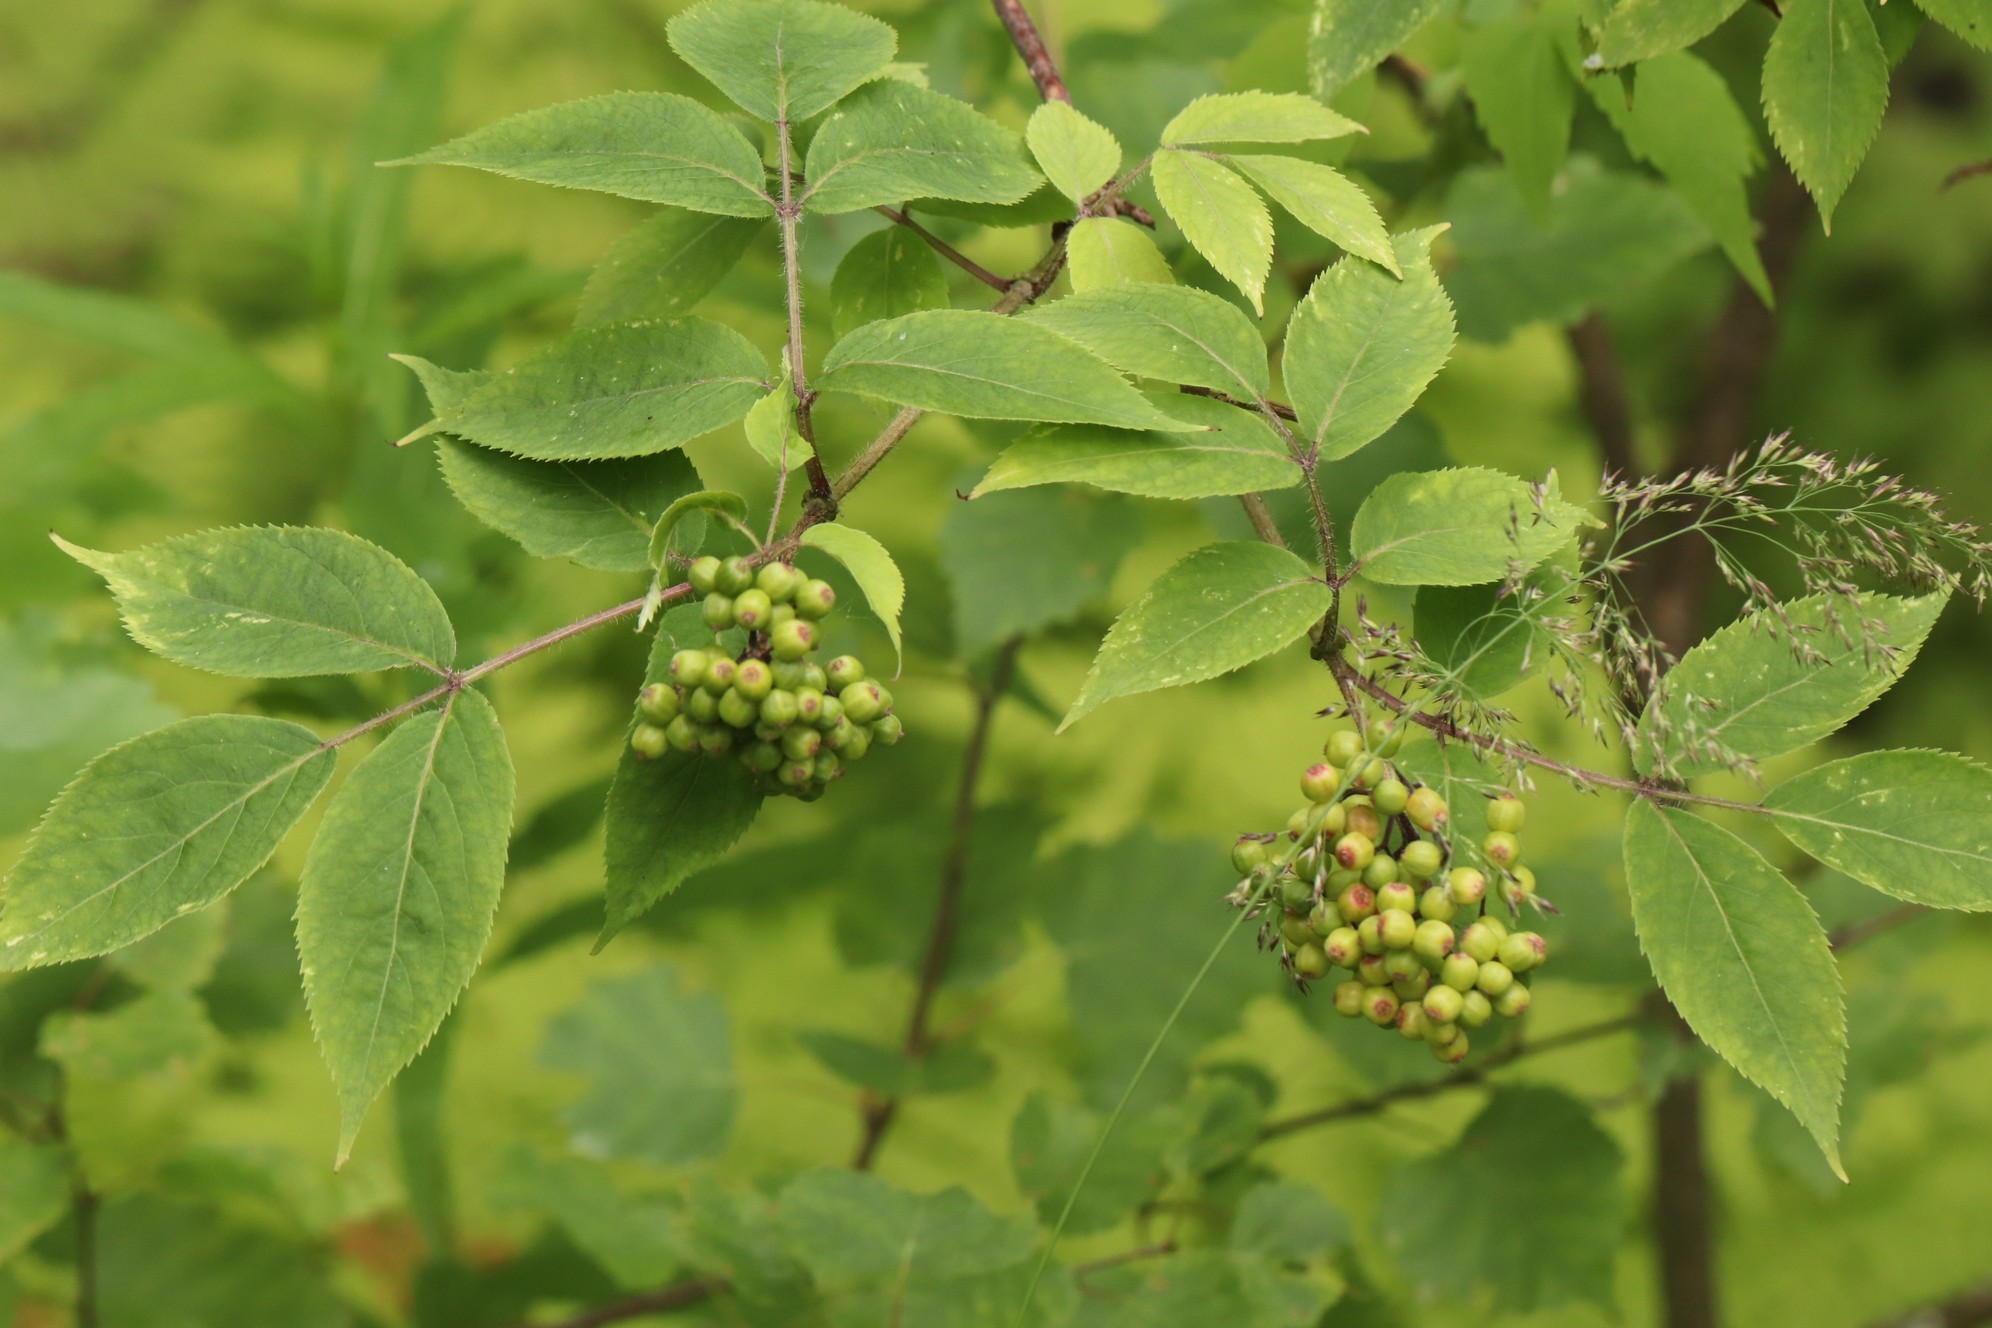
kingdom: Plantae
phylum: Tracheophyta
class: Magnoliopsida
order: Dipsacales
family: Viburnaceae
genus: Sambucus
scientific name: Sambucus sibirica
